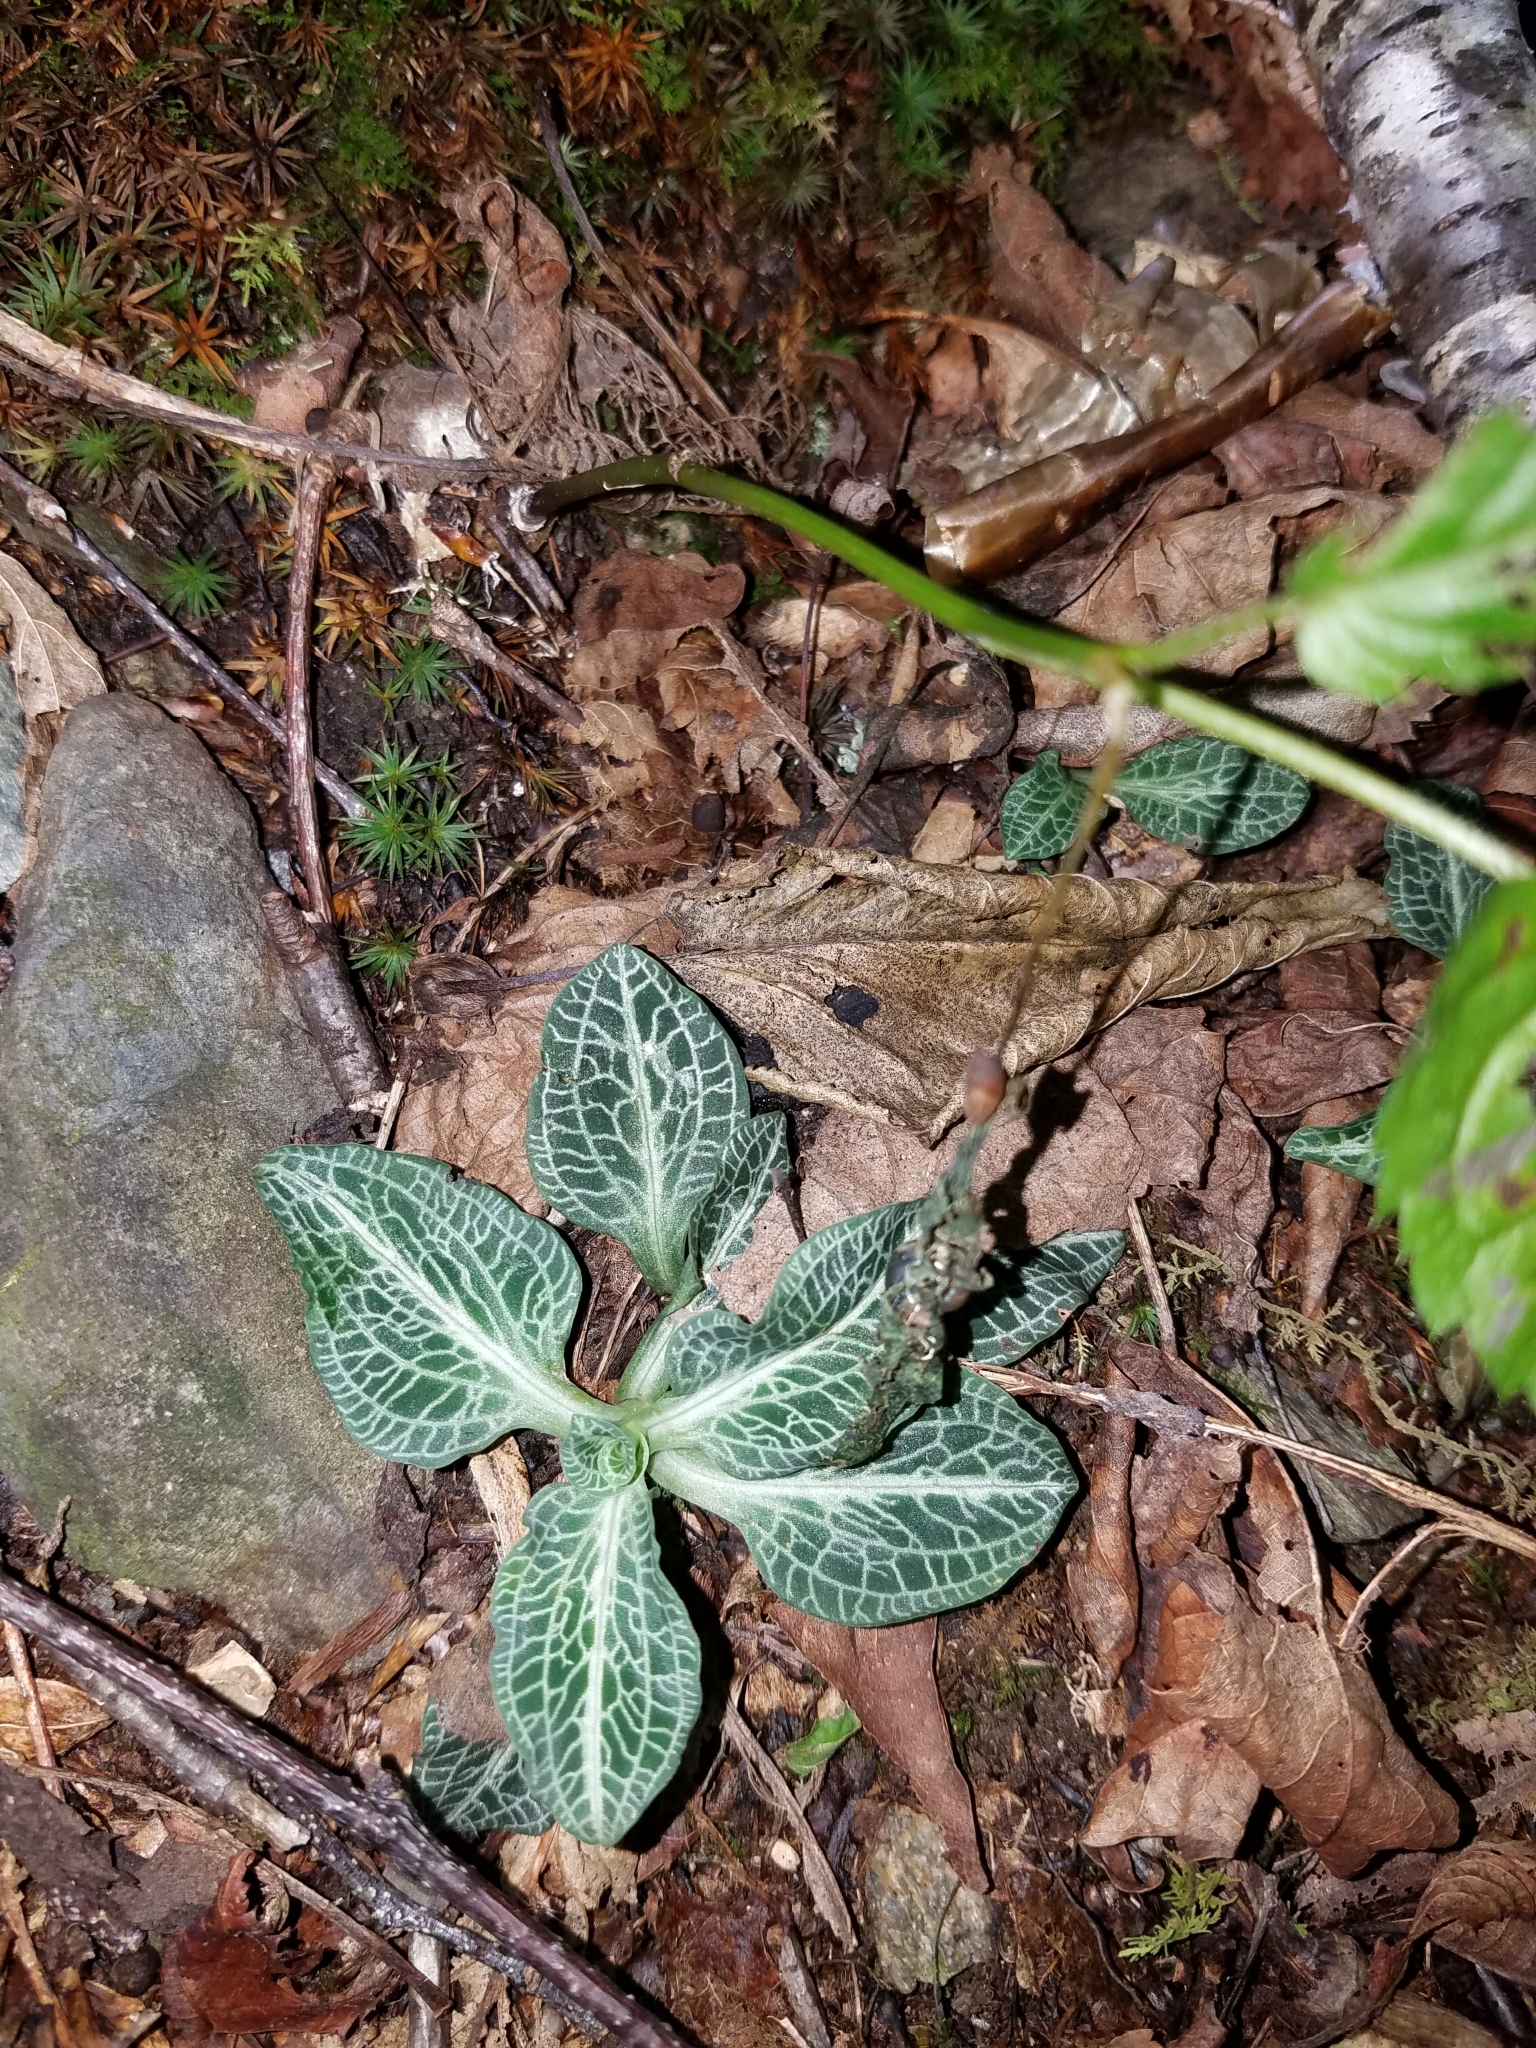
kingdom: Plantae
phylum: Tracheophyta
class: Liliopsida
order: Asparagales
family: Orchidaceae
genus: Goodyera
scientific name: Goodyera pubescens
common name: Downy rattlesnake-plantain
